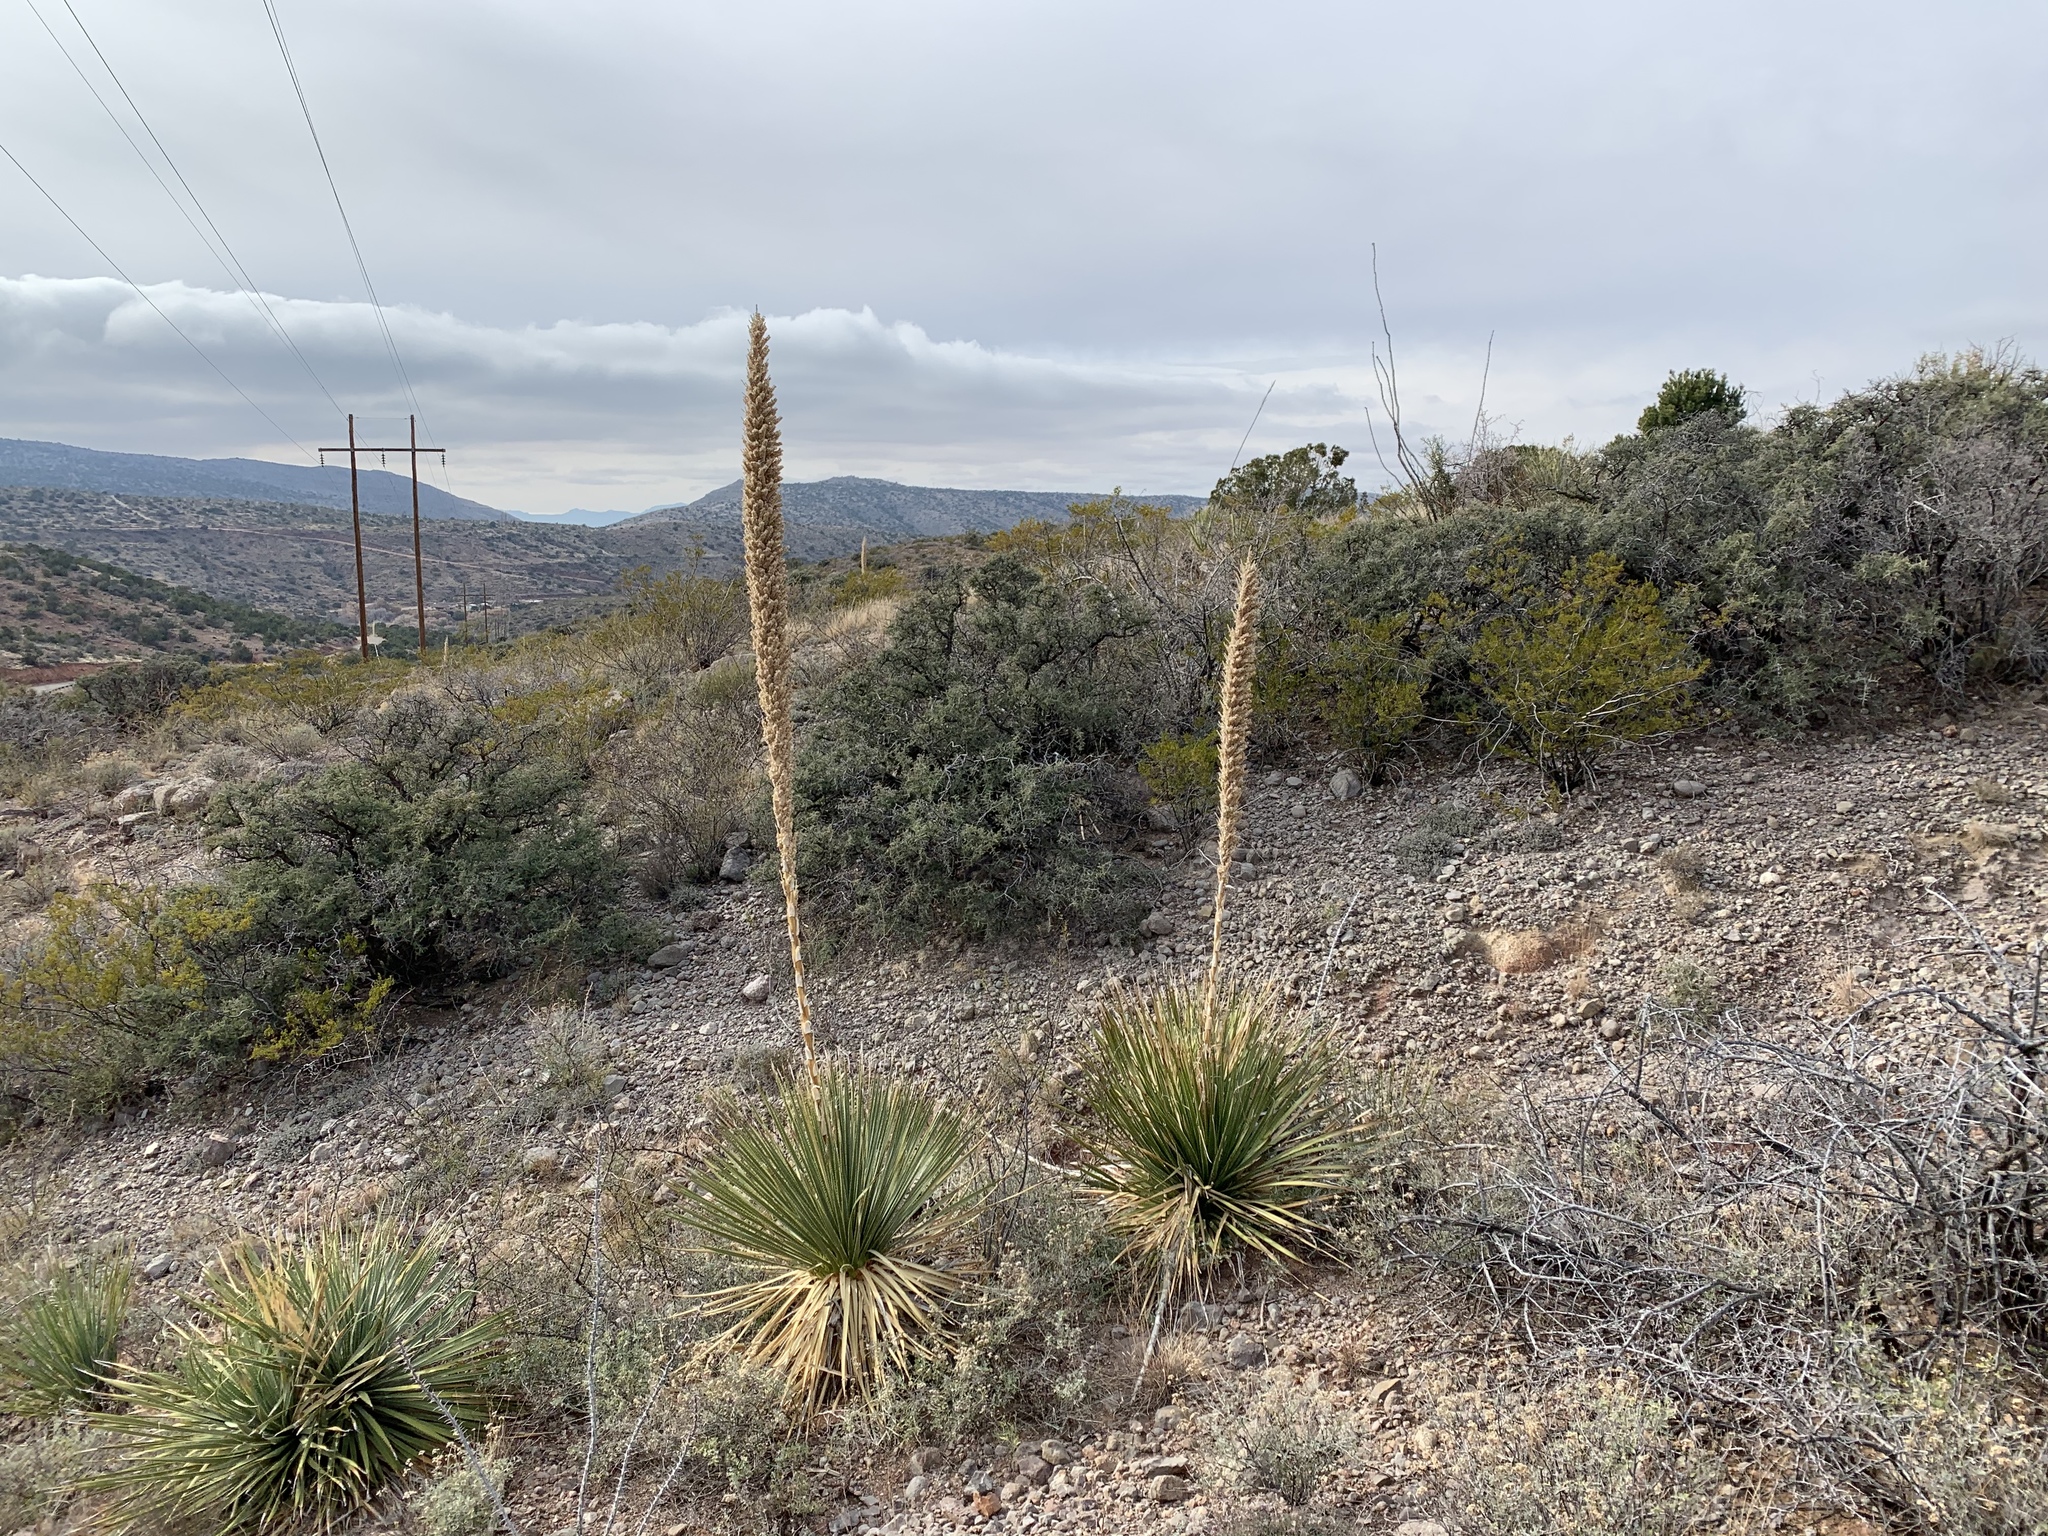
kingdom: Plantae
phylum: Tracheophyta
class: Liliopsida
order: Asparagales
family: Asparagaceae
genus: Dasylirion
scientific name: Dasylirion wheeleri
